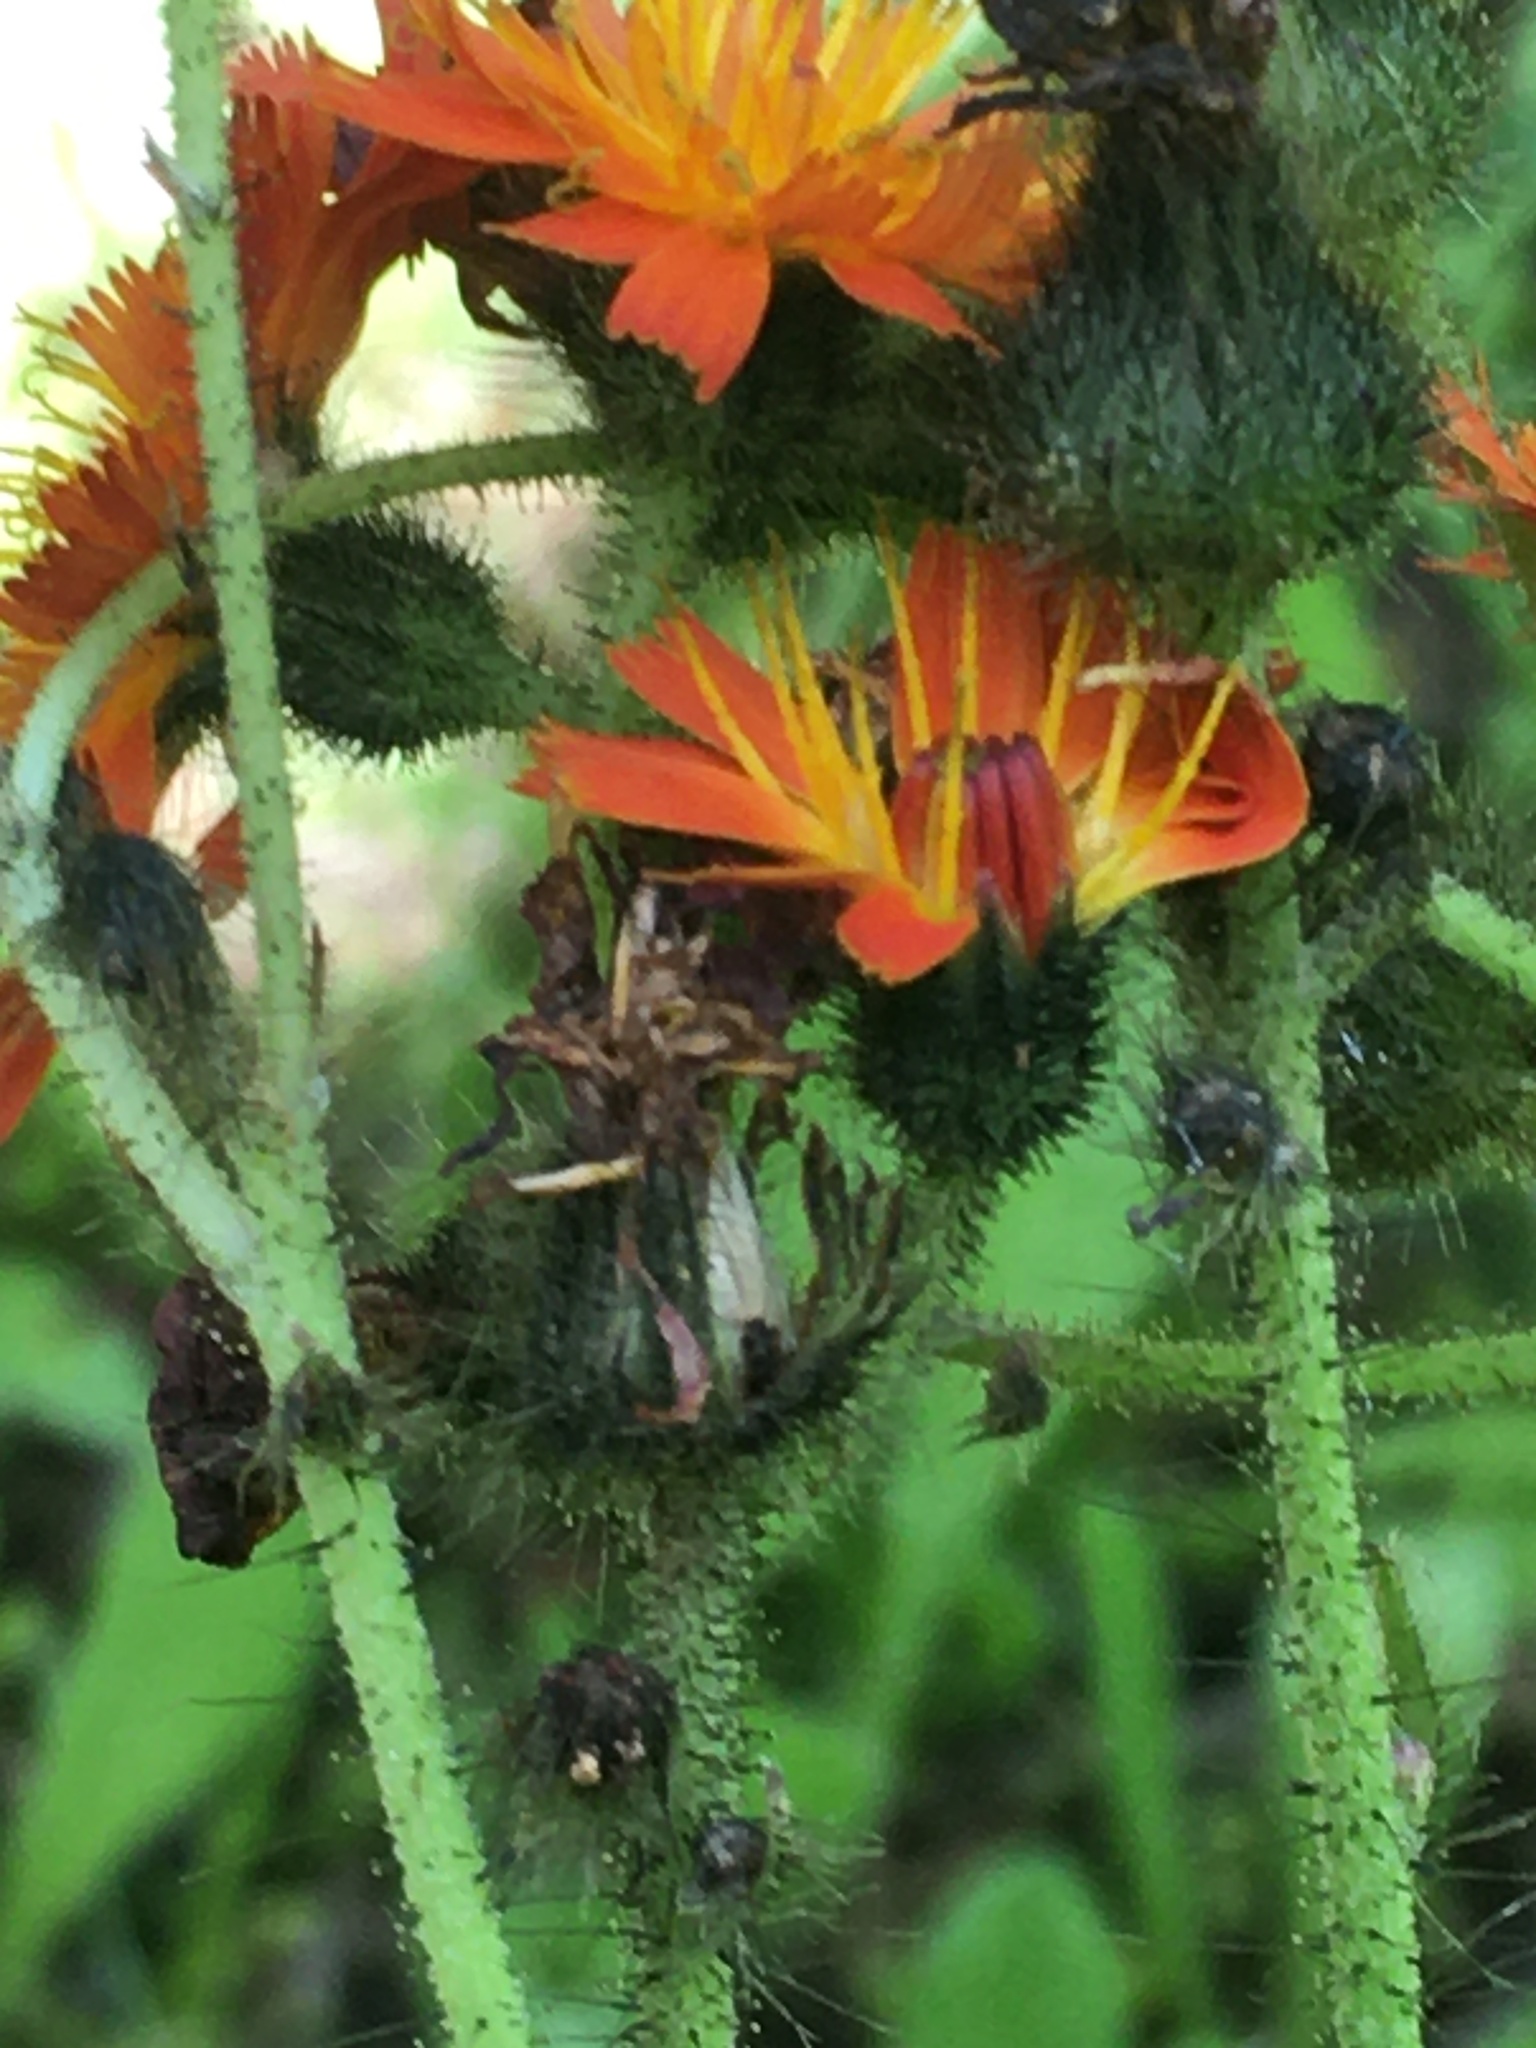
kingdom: Plantae
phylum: Tracheophyta
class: Magnoliopsida
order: Asterales
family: Asteraceae
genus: Pilosella
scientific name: Pilosella aurantiaca
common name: Fox-and-cubs
